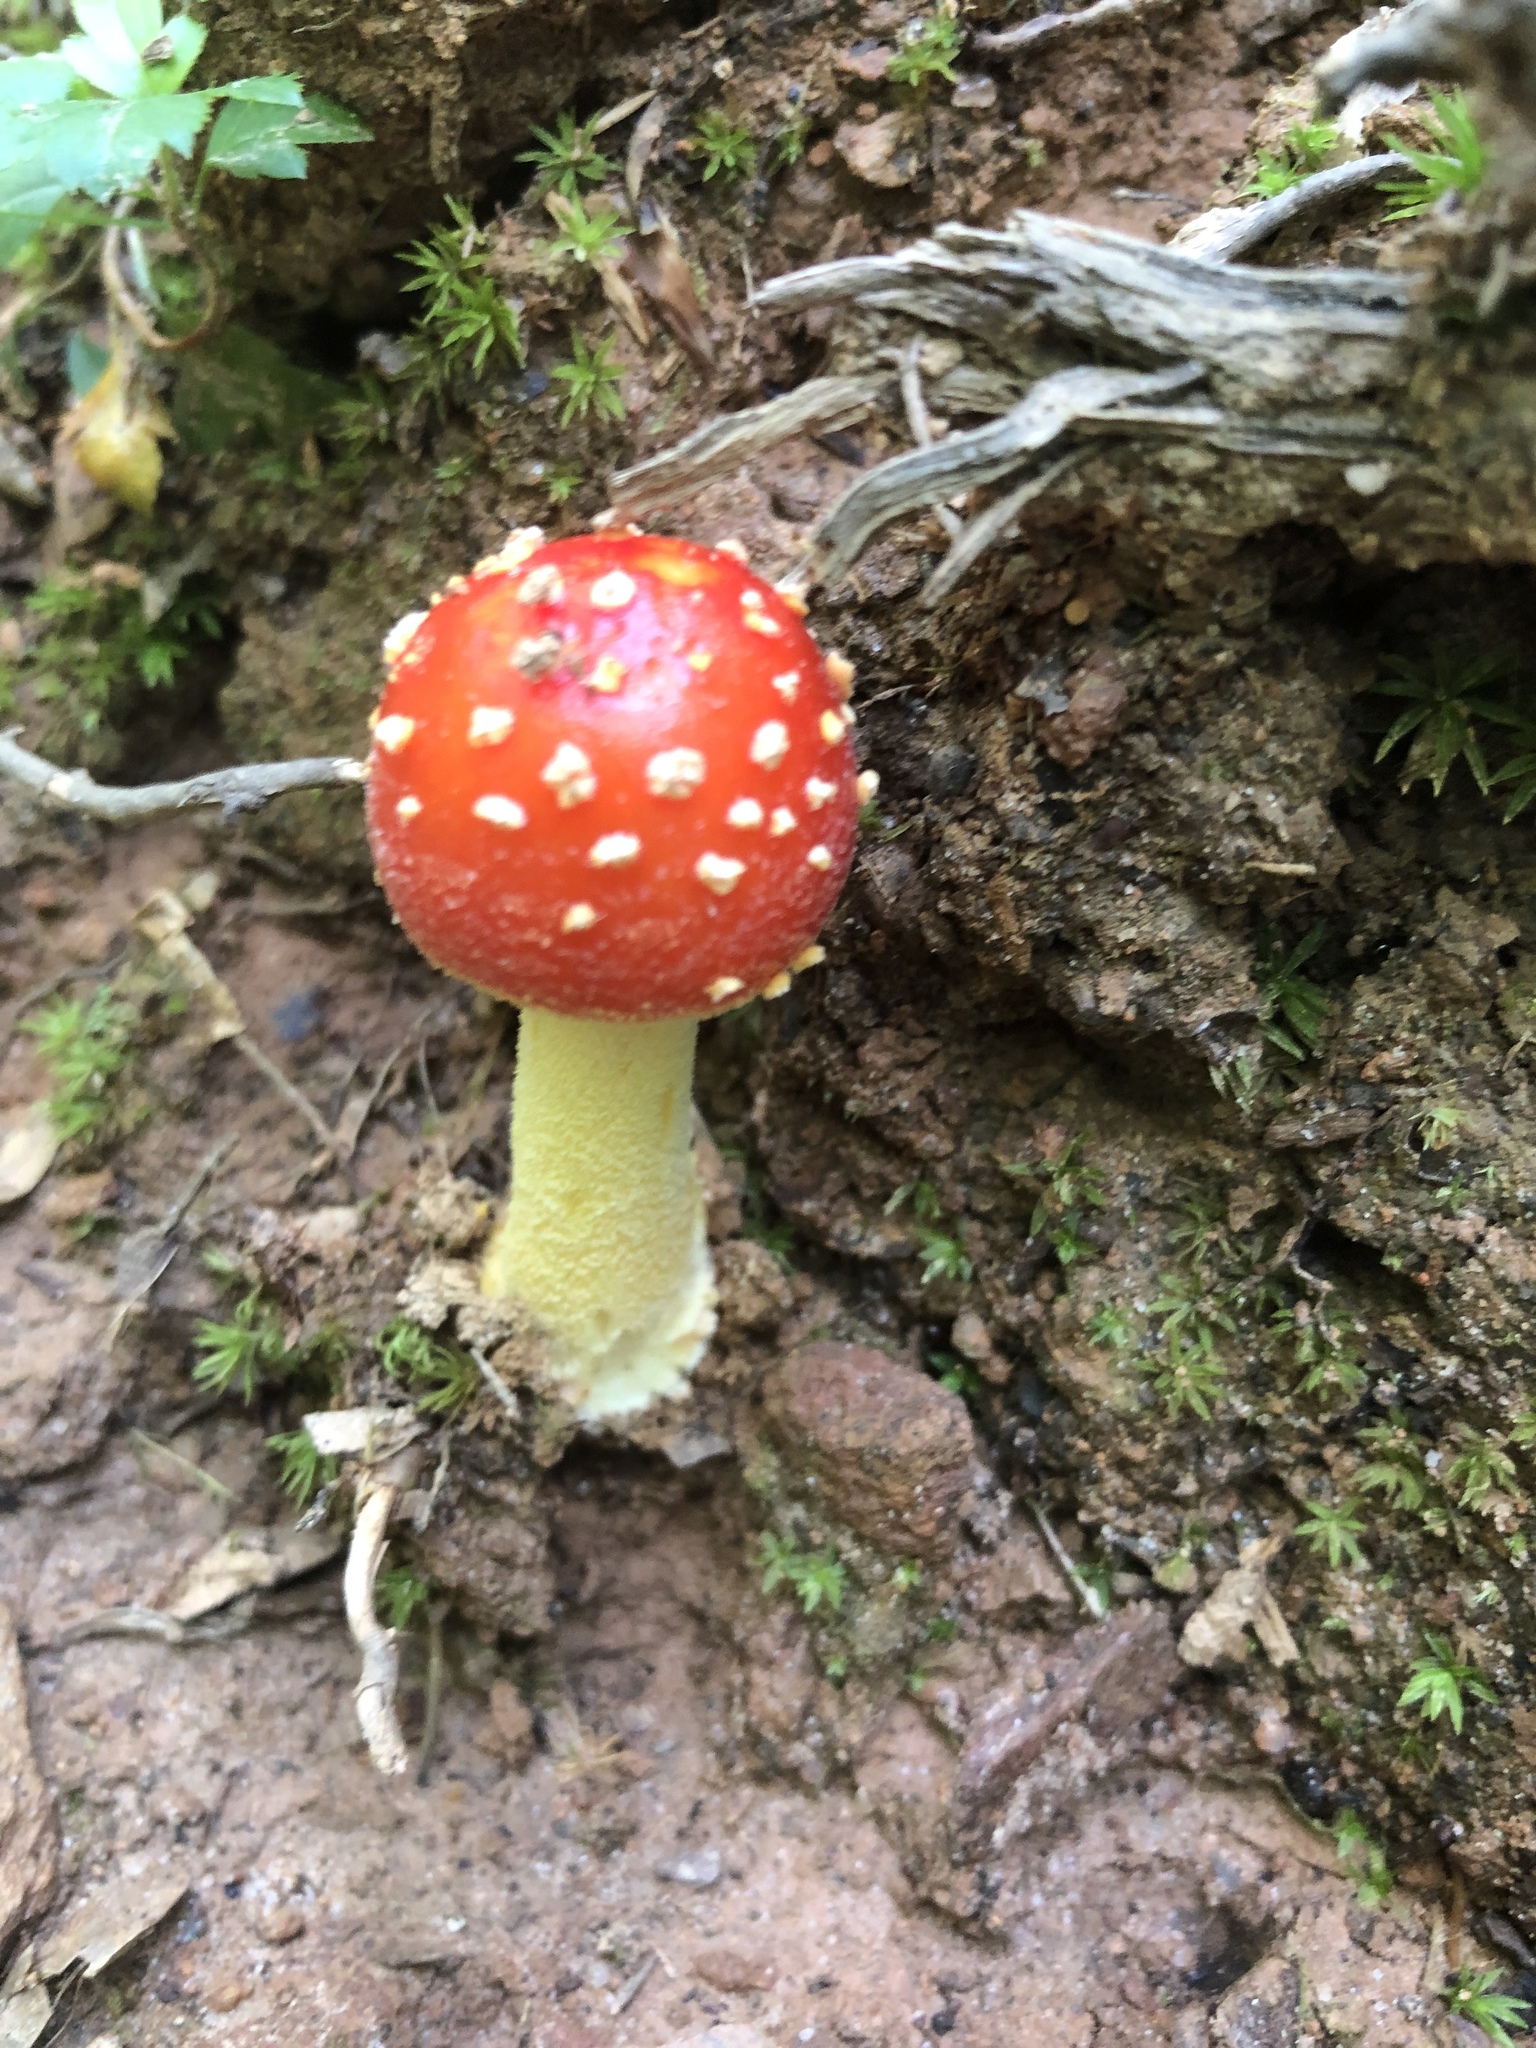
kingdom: Fungi
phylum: Basidiomycota
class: Agaricomycetes
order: Agaricales
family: Amanitaceae
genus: Amanita
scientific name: Amanita parcivolvata
